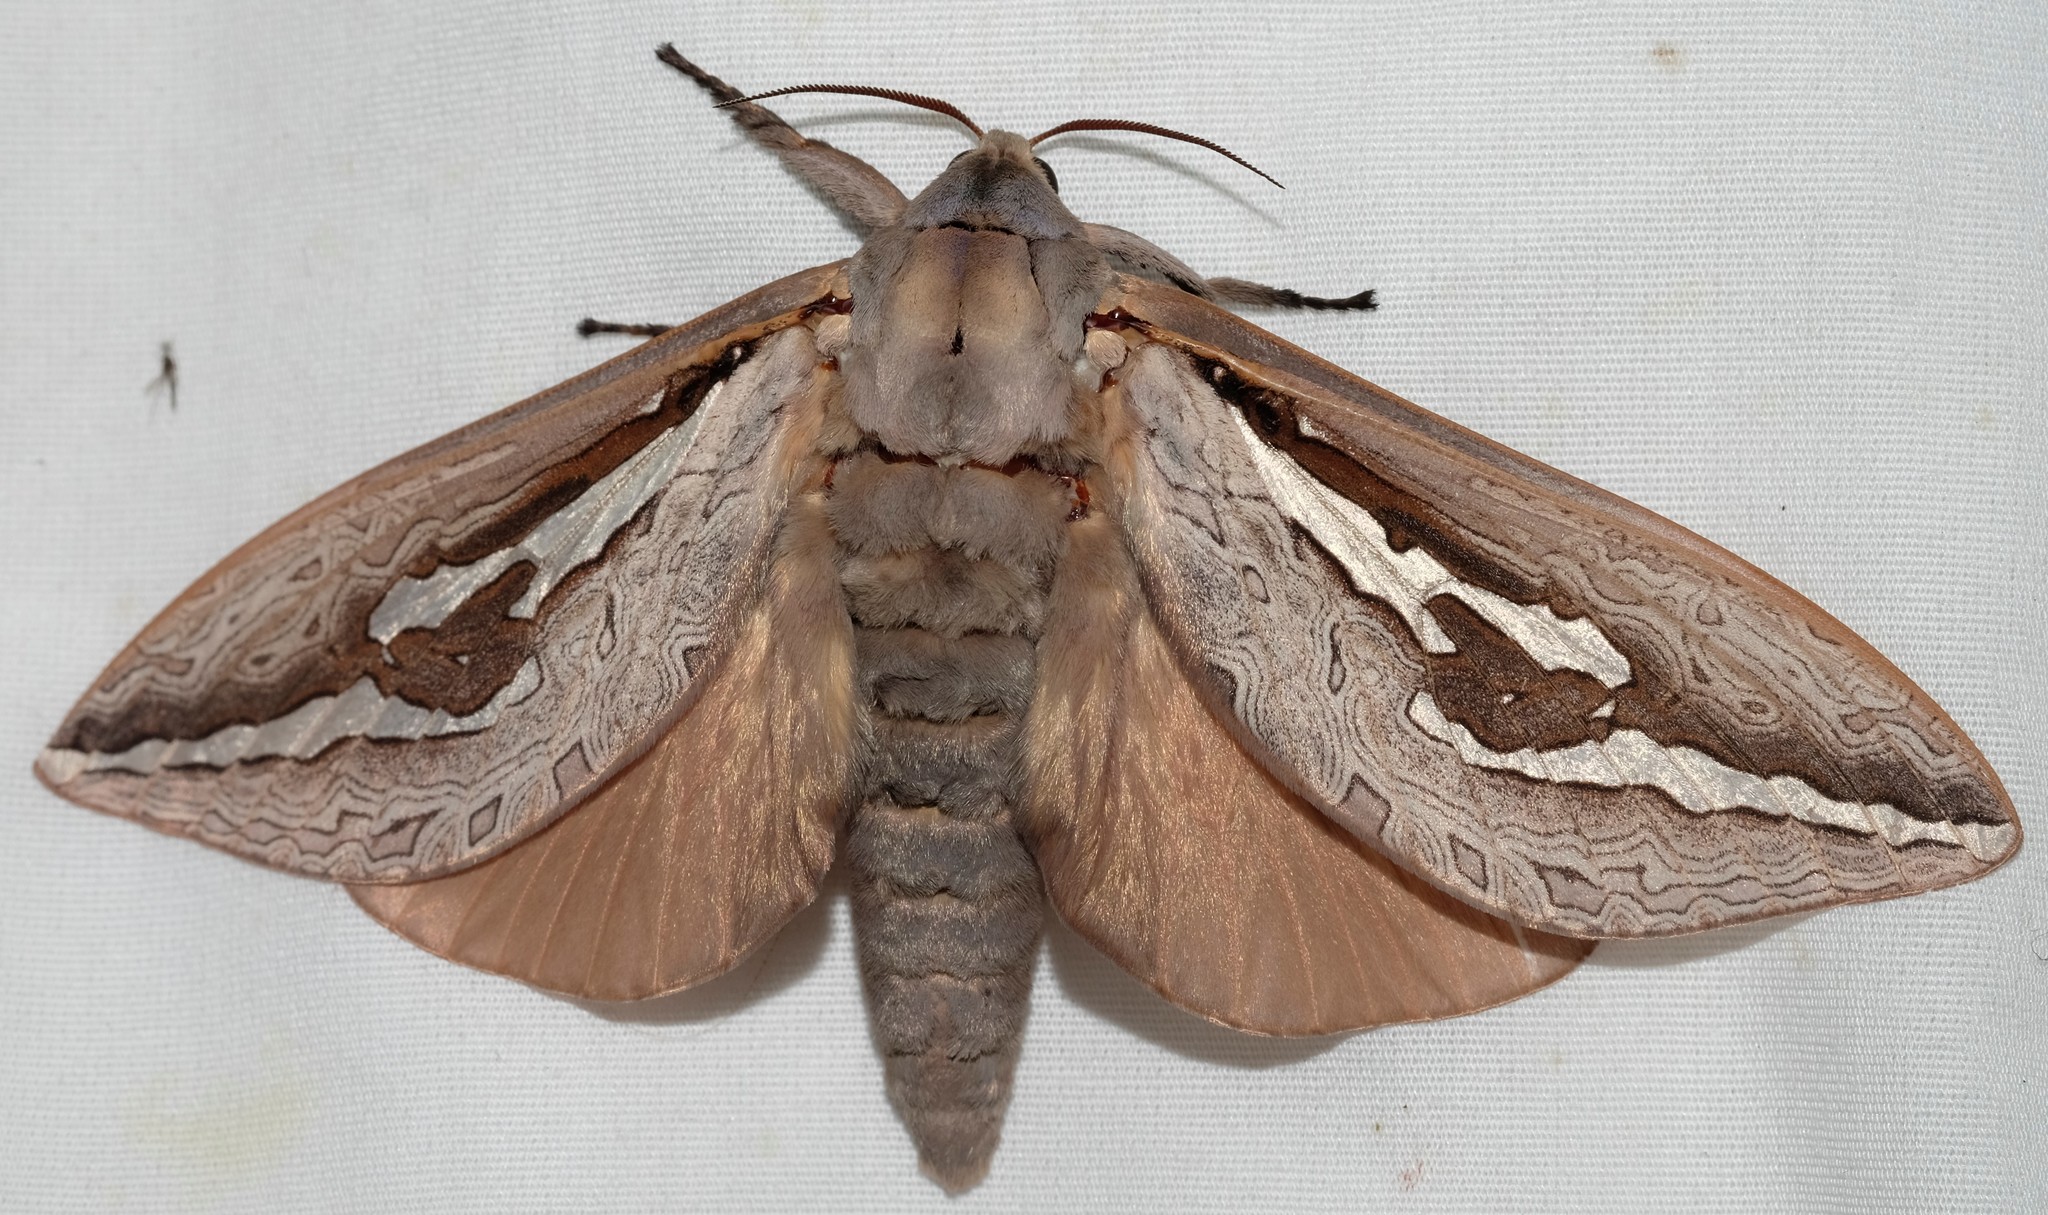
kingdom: Animalia
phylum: Arthropoda
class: Insecta
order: Lepidoptera
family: Hepialidae
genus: Abantiades
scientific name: Abantiades labyrinthicus
